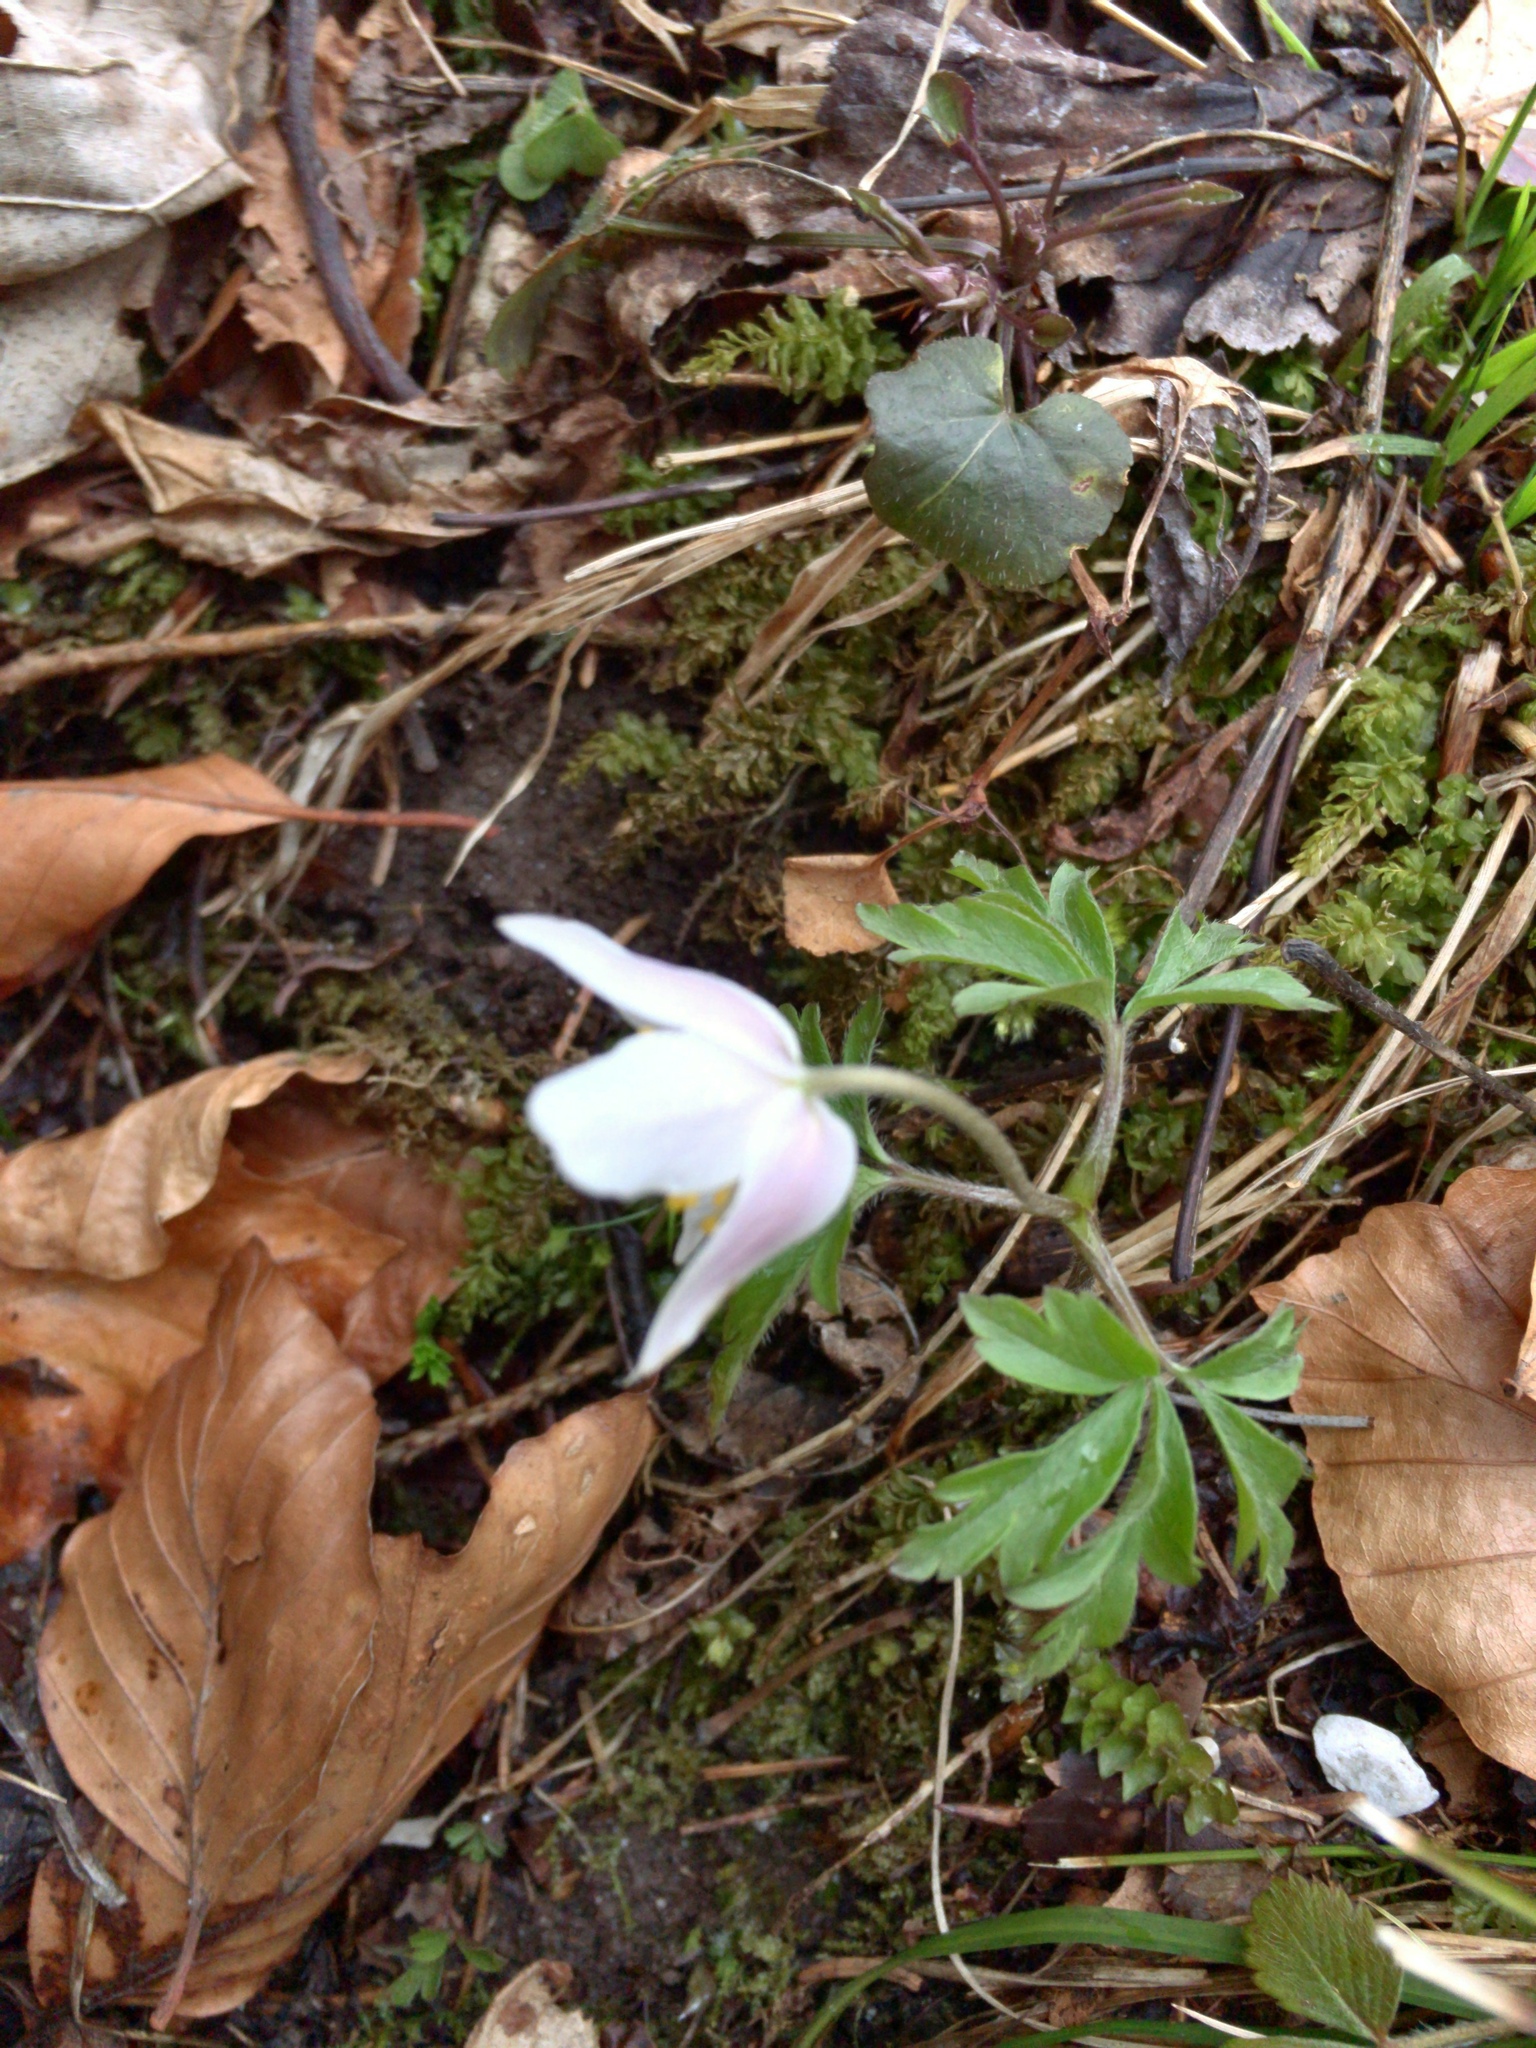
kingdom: Plantae
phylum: Tracheophyta
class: Magnoliopsida
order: Ranunculales
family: Ranunculaceae
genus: Anemone
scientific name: Anemone nemorosa
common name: Wood anemone
